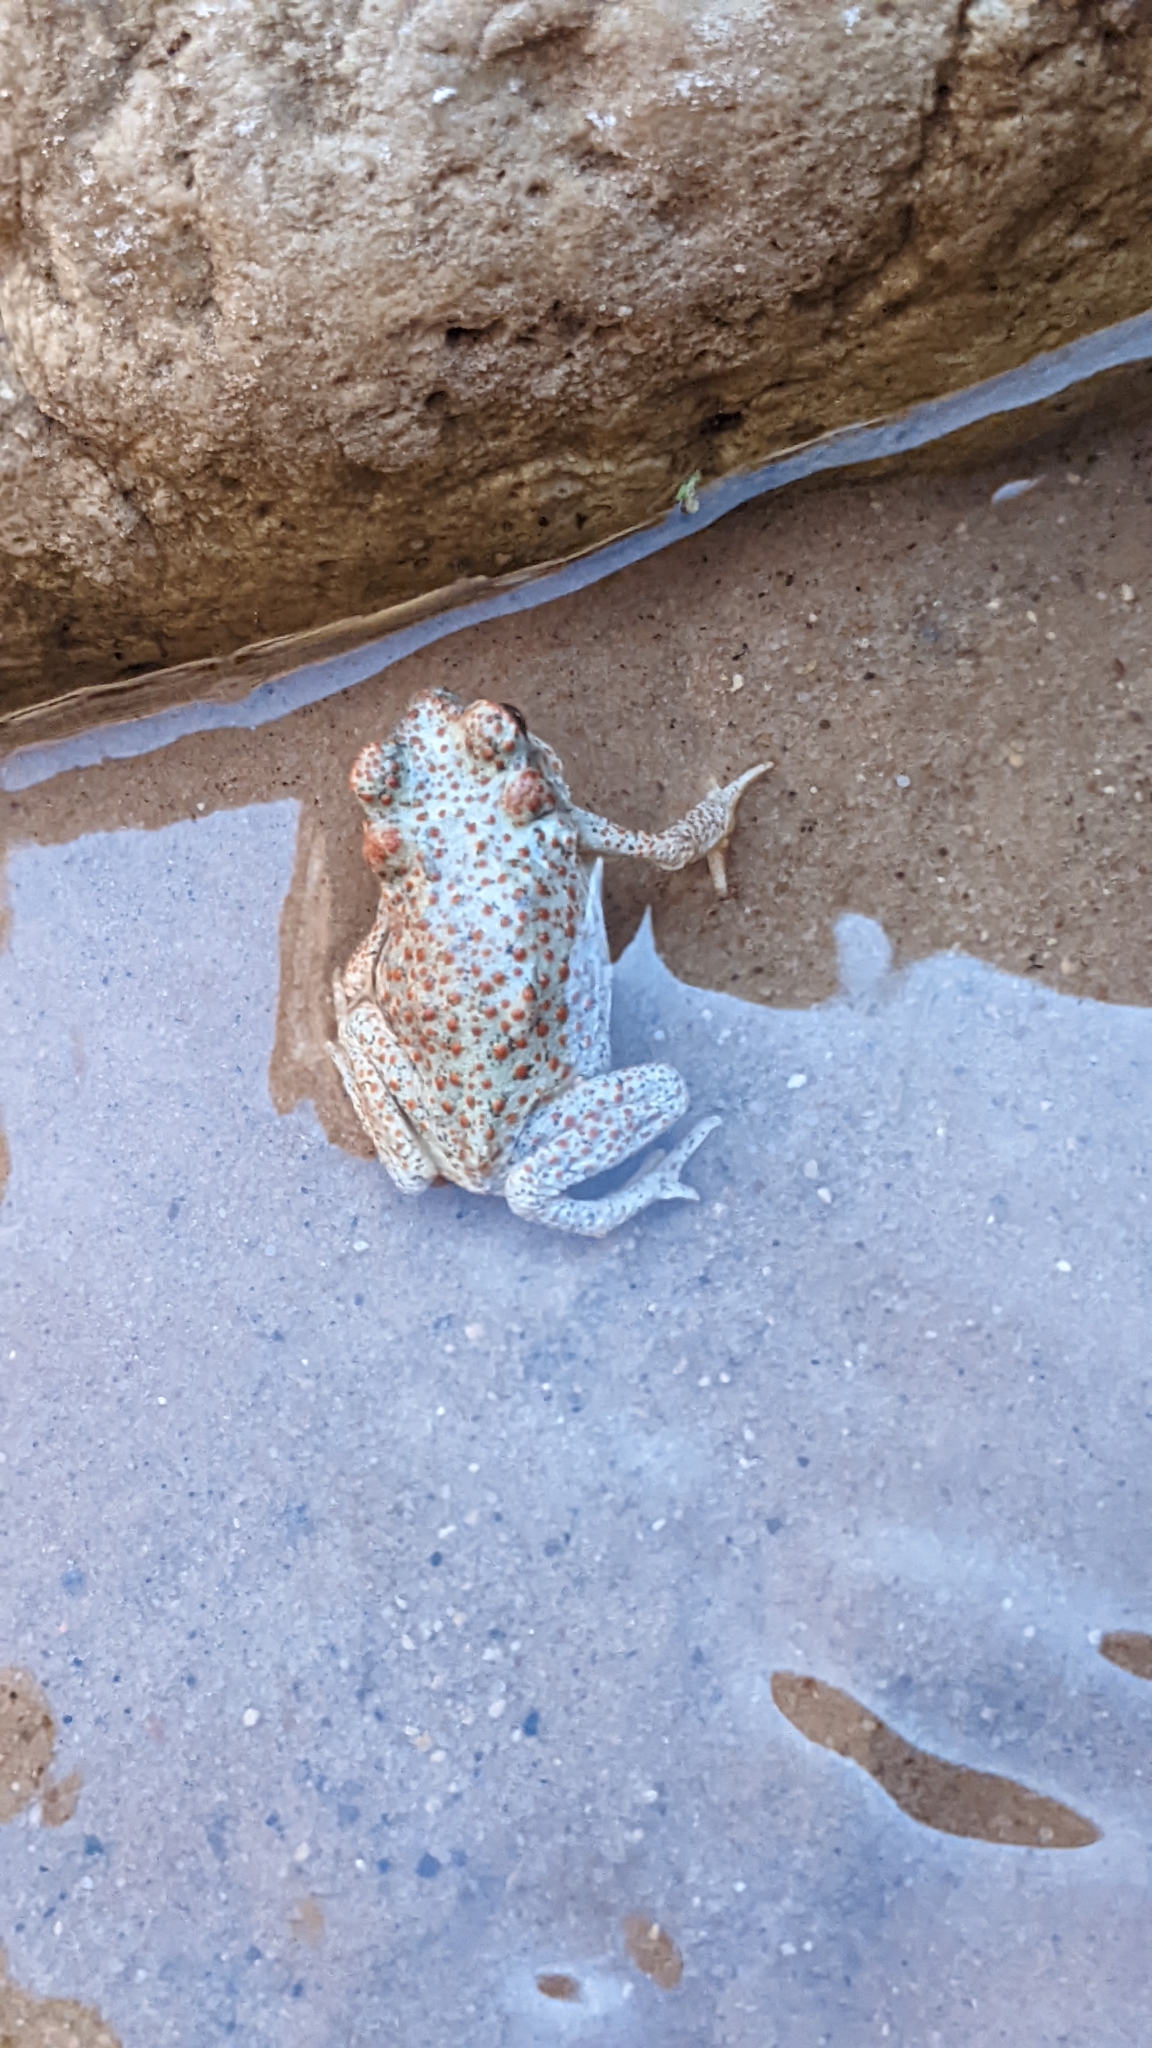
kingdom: Animalia
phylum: Chordata
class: Amphibia
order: Anura
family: Bufonidae
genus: Anaxyrus
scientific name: Anaxyrus punctatus
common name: Red-spotted toad
